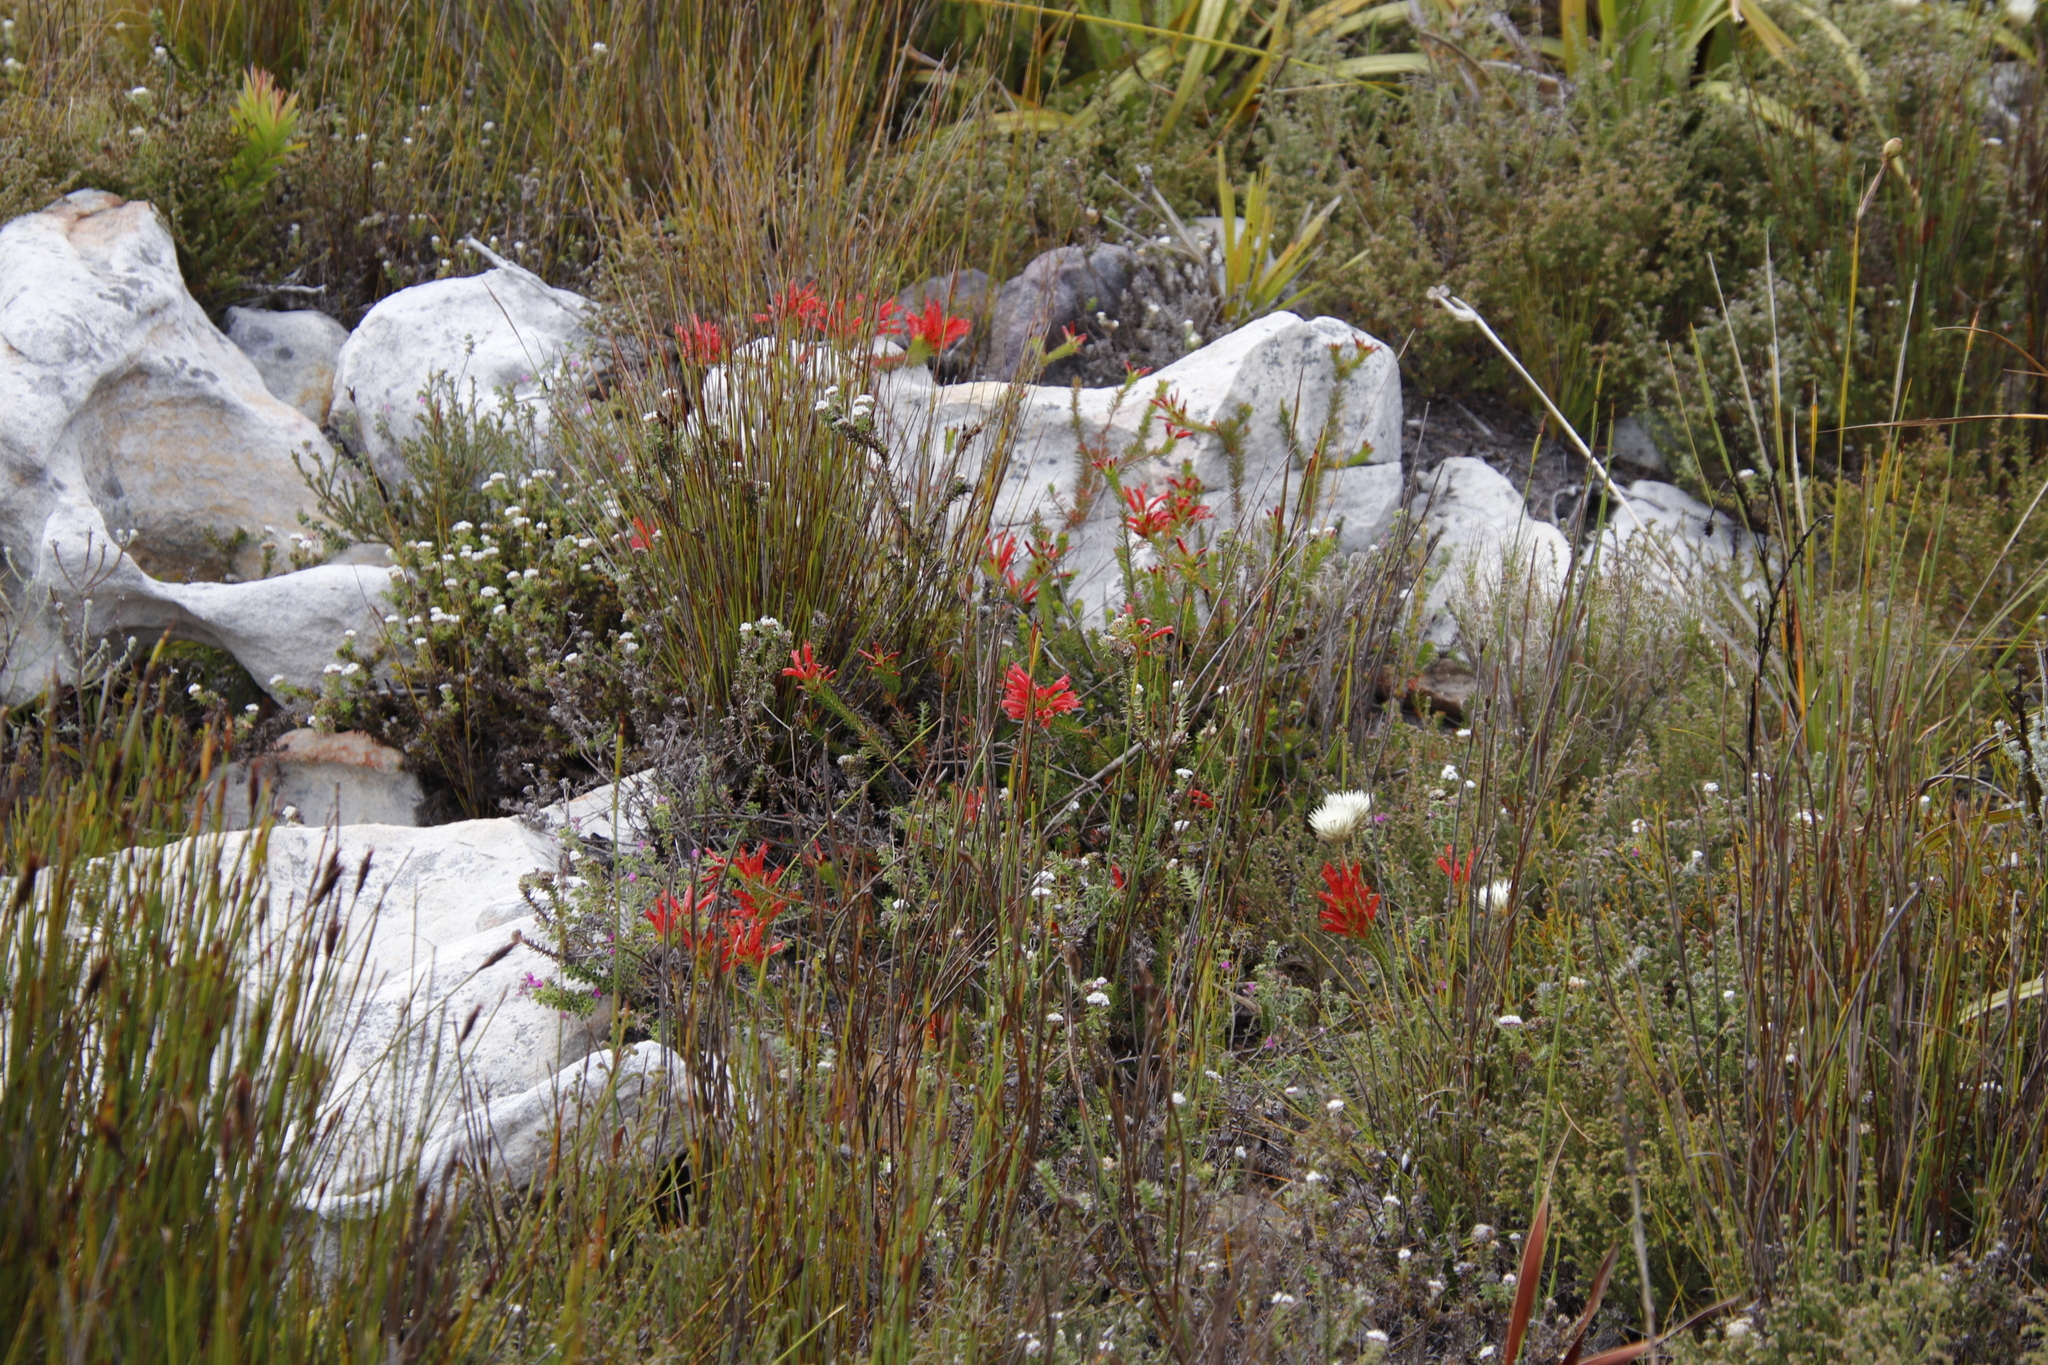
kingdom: Plantae
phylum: Tracheophyta
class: Magnoliopsida
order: Ericales
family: Ericaceae
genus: Erica
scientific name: Erica nevillei
